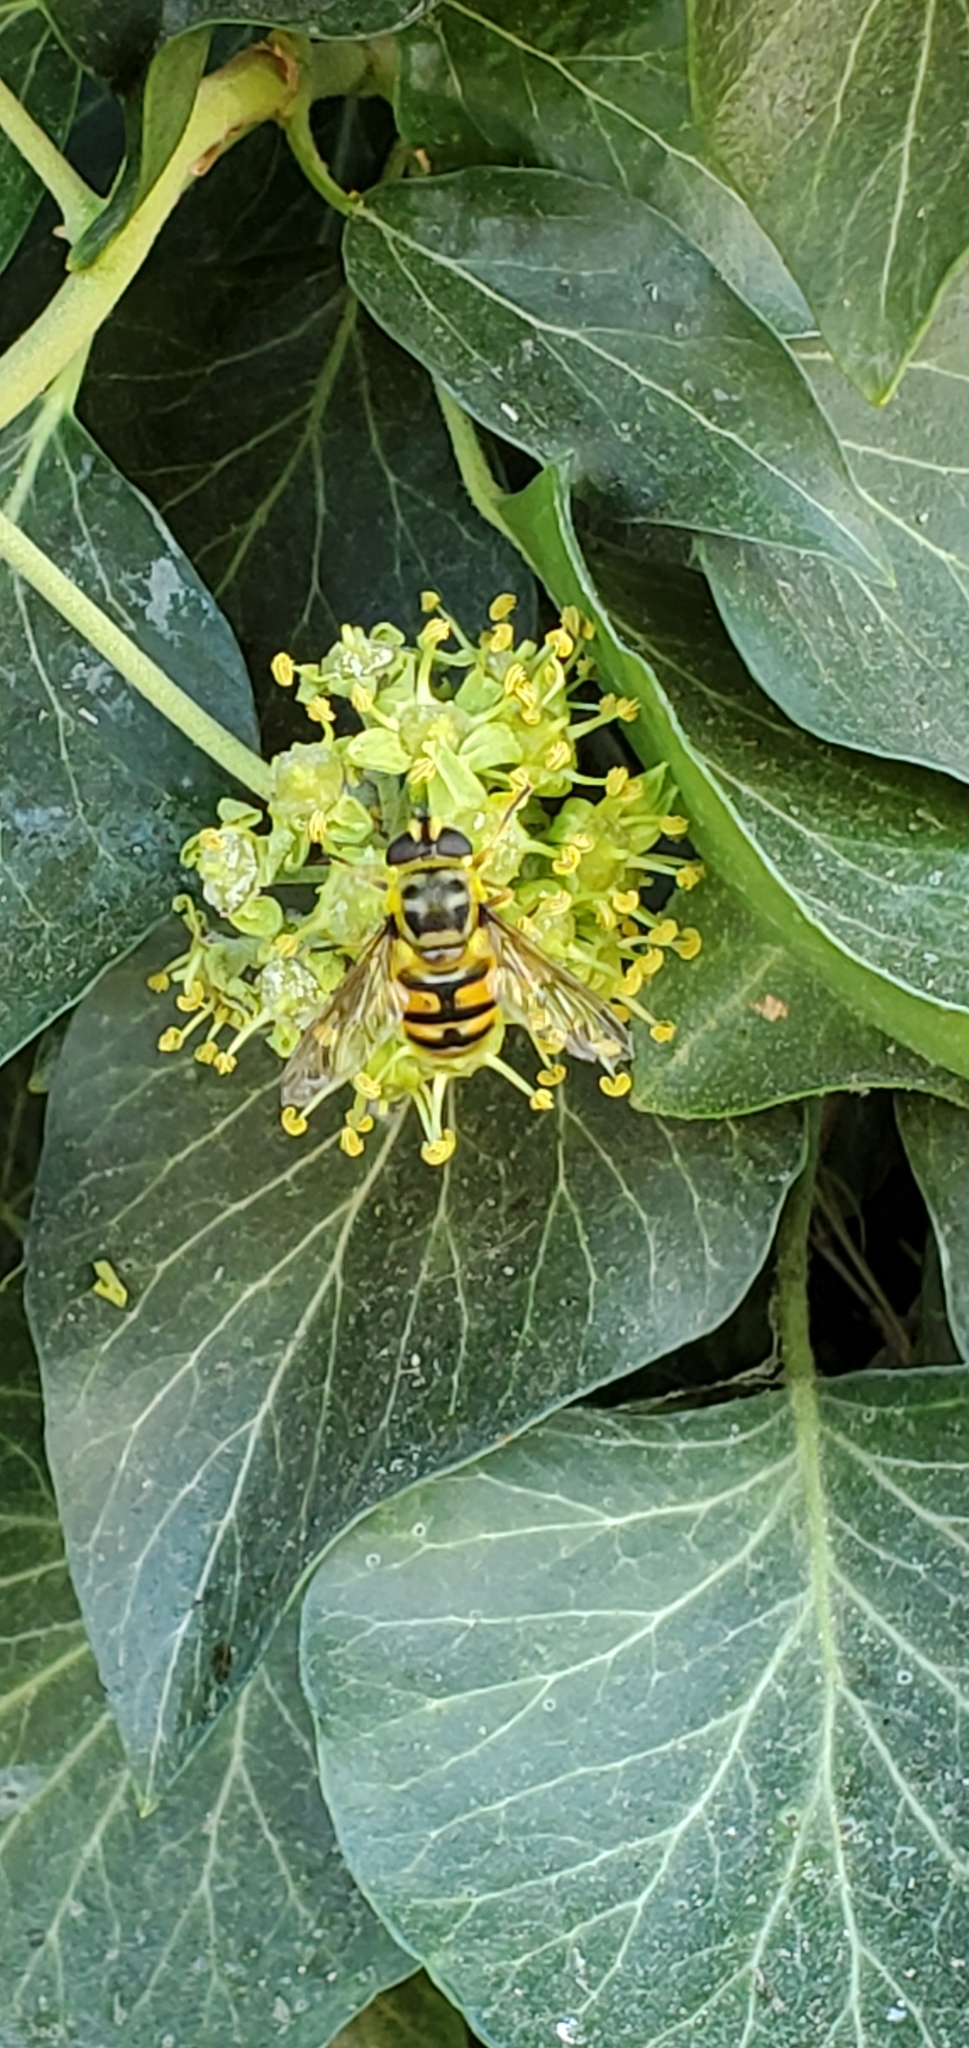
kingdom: Animalia
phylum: Arthropoda
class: Insecta
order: Diptera
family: Syrphidae
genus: Myathropa
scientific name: Myathropa florea
